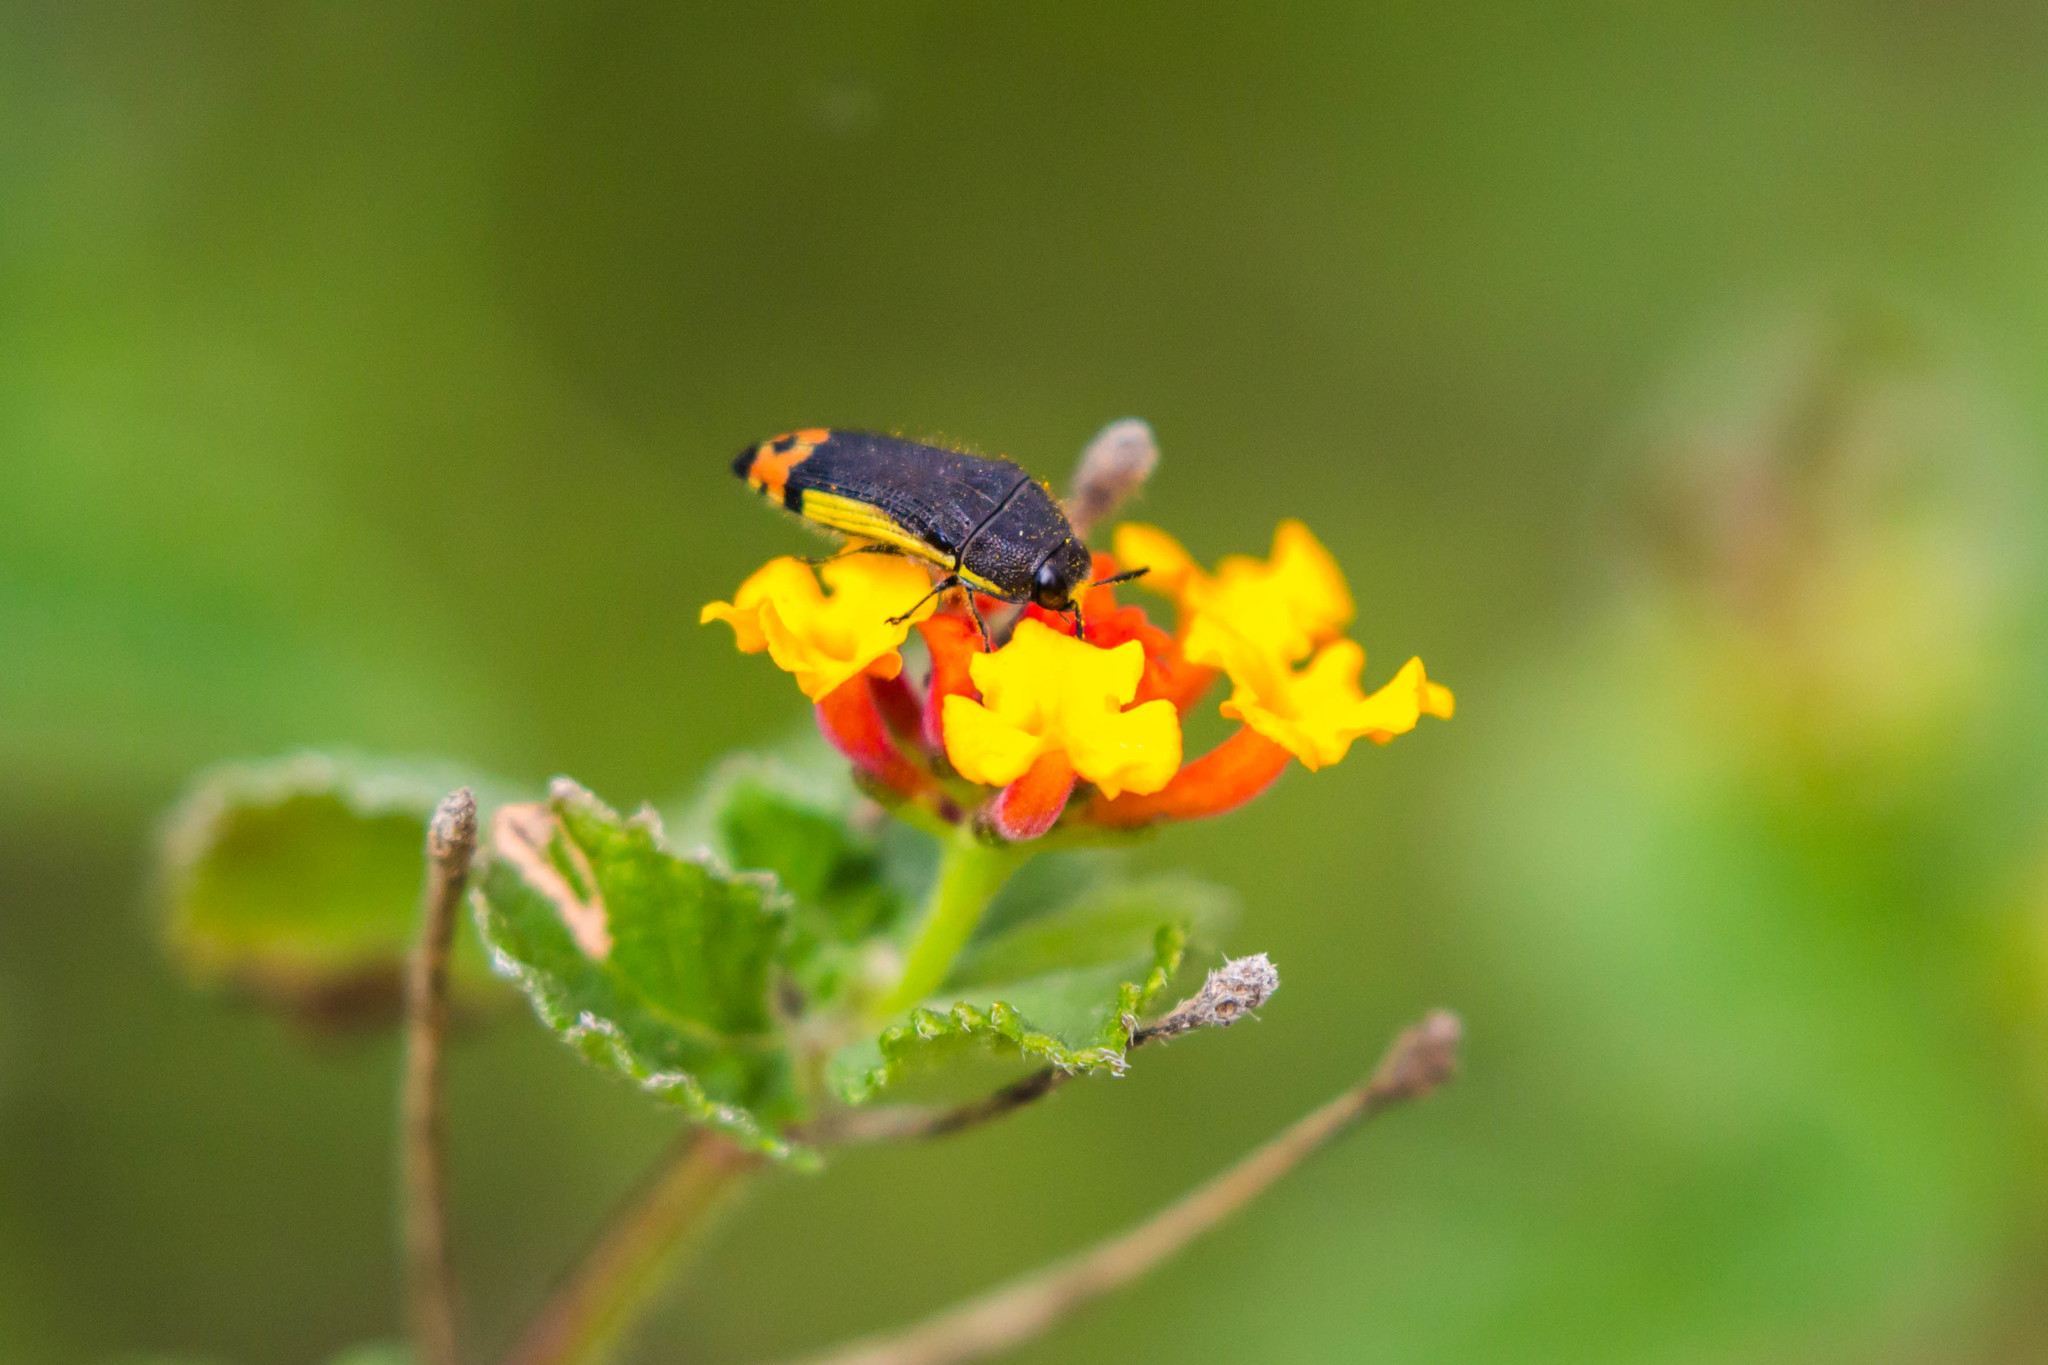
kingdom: Animalia
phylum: Arthropoda
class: Insecta
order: Coleoptera
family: Buprestidae
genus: Acmaeodera
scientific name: Acmaeodera flavomarginata
